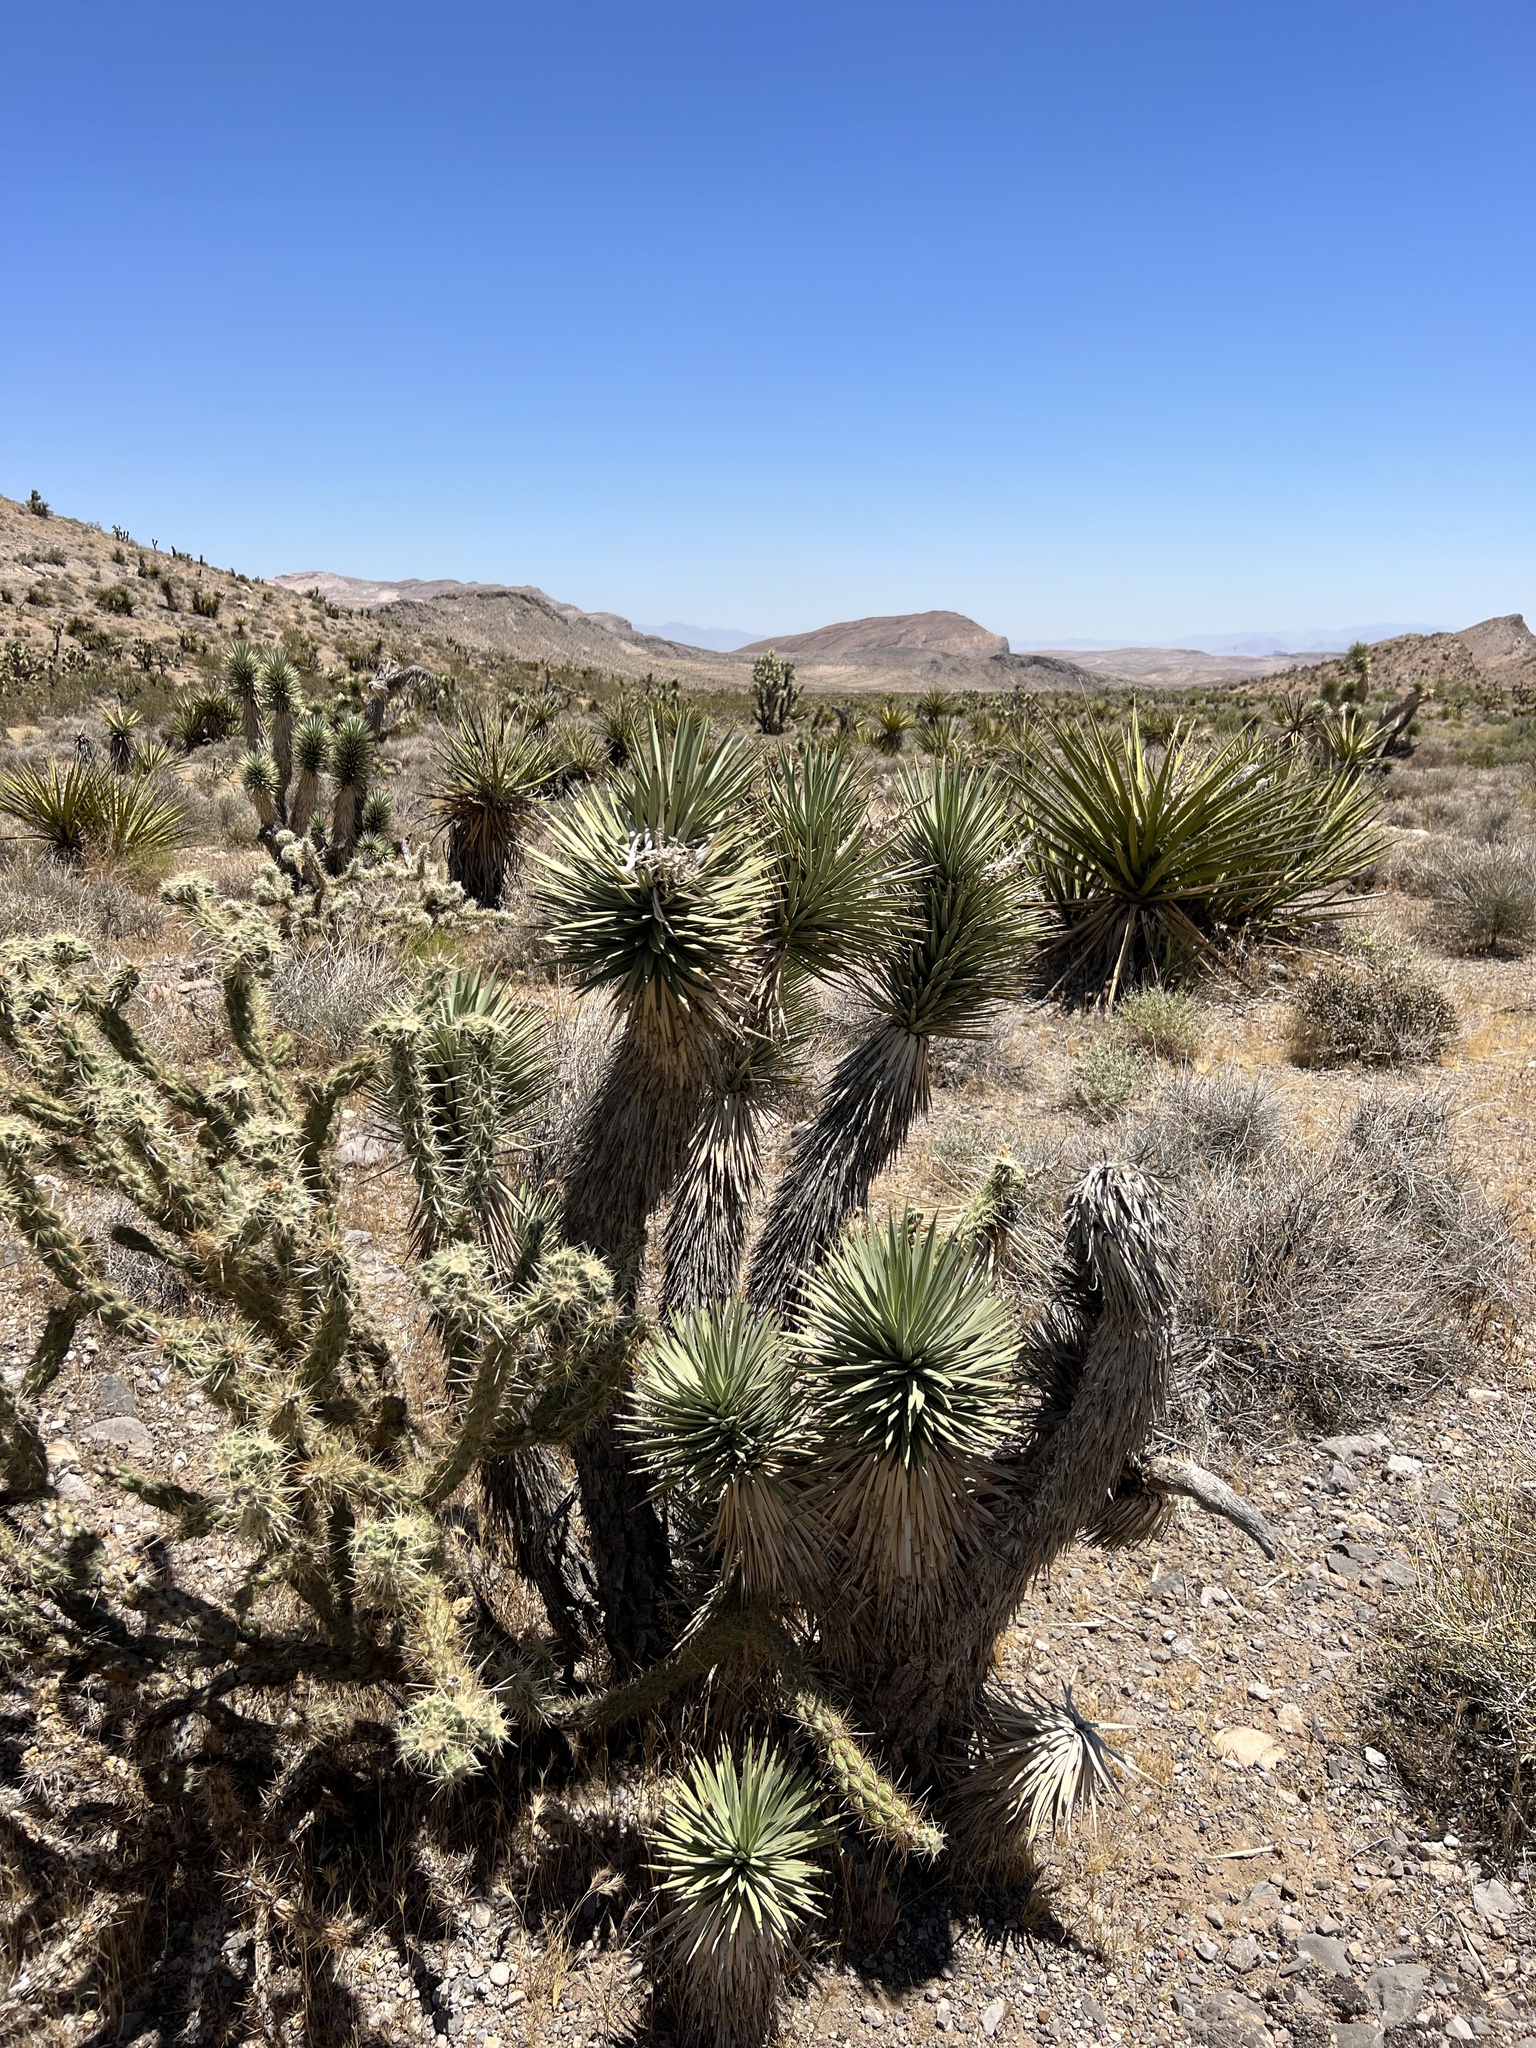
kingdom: Plantae
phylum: Tracheophyta
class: Liliopsida
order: Asparagales
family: Asparagaceae
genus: Yucca
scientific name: Yucca brevifolia
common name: Joshua tree
